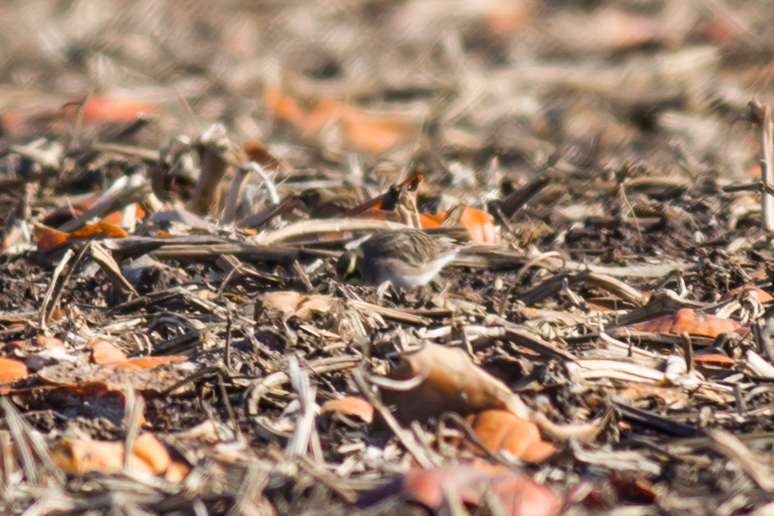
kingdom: Animalia
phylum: Chordata
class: Aves
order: Passeriformes
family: Alaudidae
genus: Eremophila
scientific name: Eremophila alpestris
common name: Horned lark
